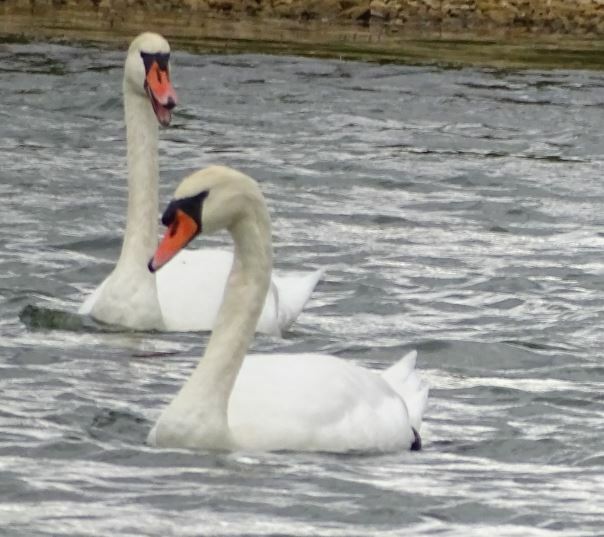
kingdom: Animalia
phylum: Chordata
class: Aves
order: Anseriformes
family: Anatidae
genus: Cygnus
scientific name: Cygnus olor
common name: Mute swan
